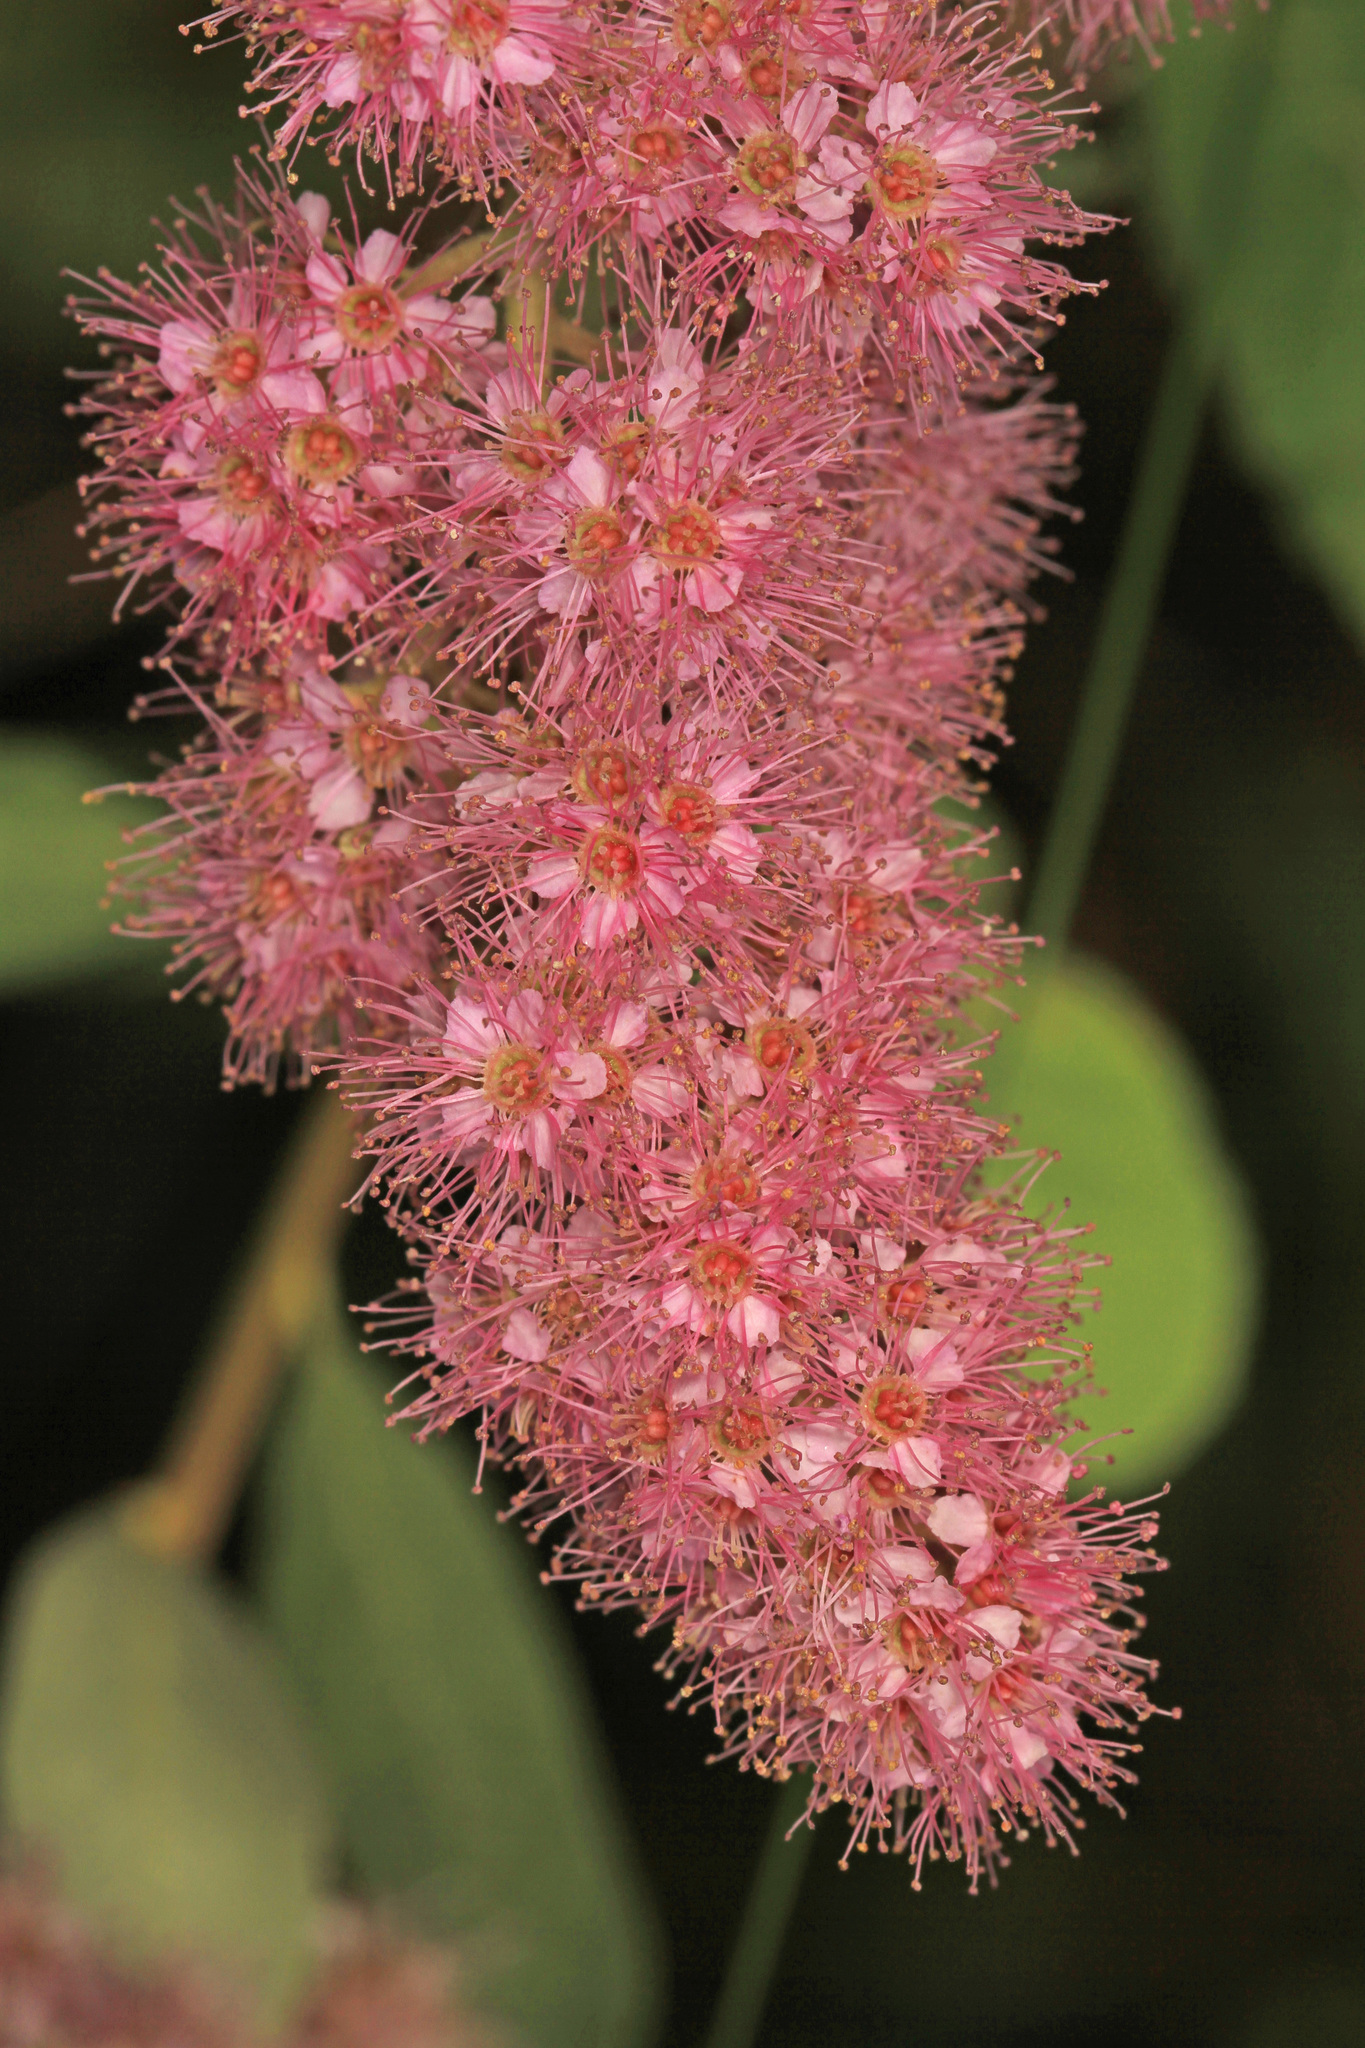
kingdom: Plantae
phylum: Tracheophyta
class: Magnoliopsida
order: Rosales
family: Rosaceae
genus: Spiraea
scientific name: Spiraea douglasii
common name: Steeplebush
